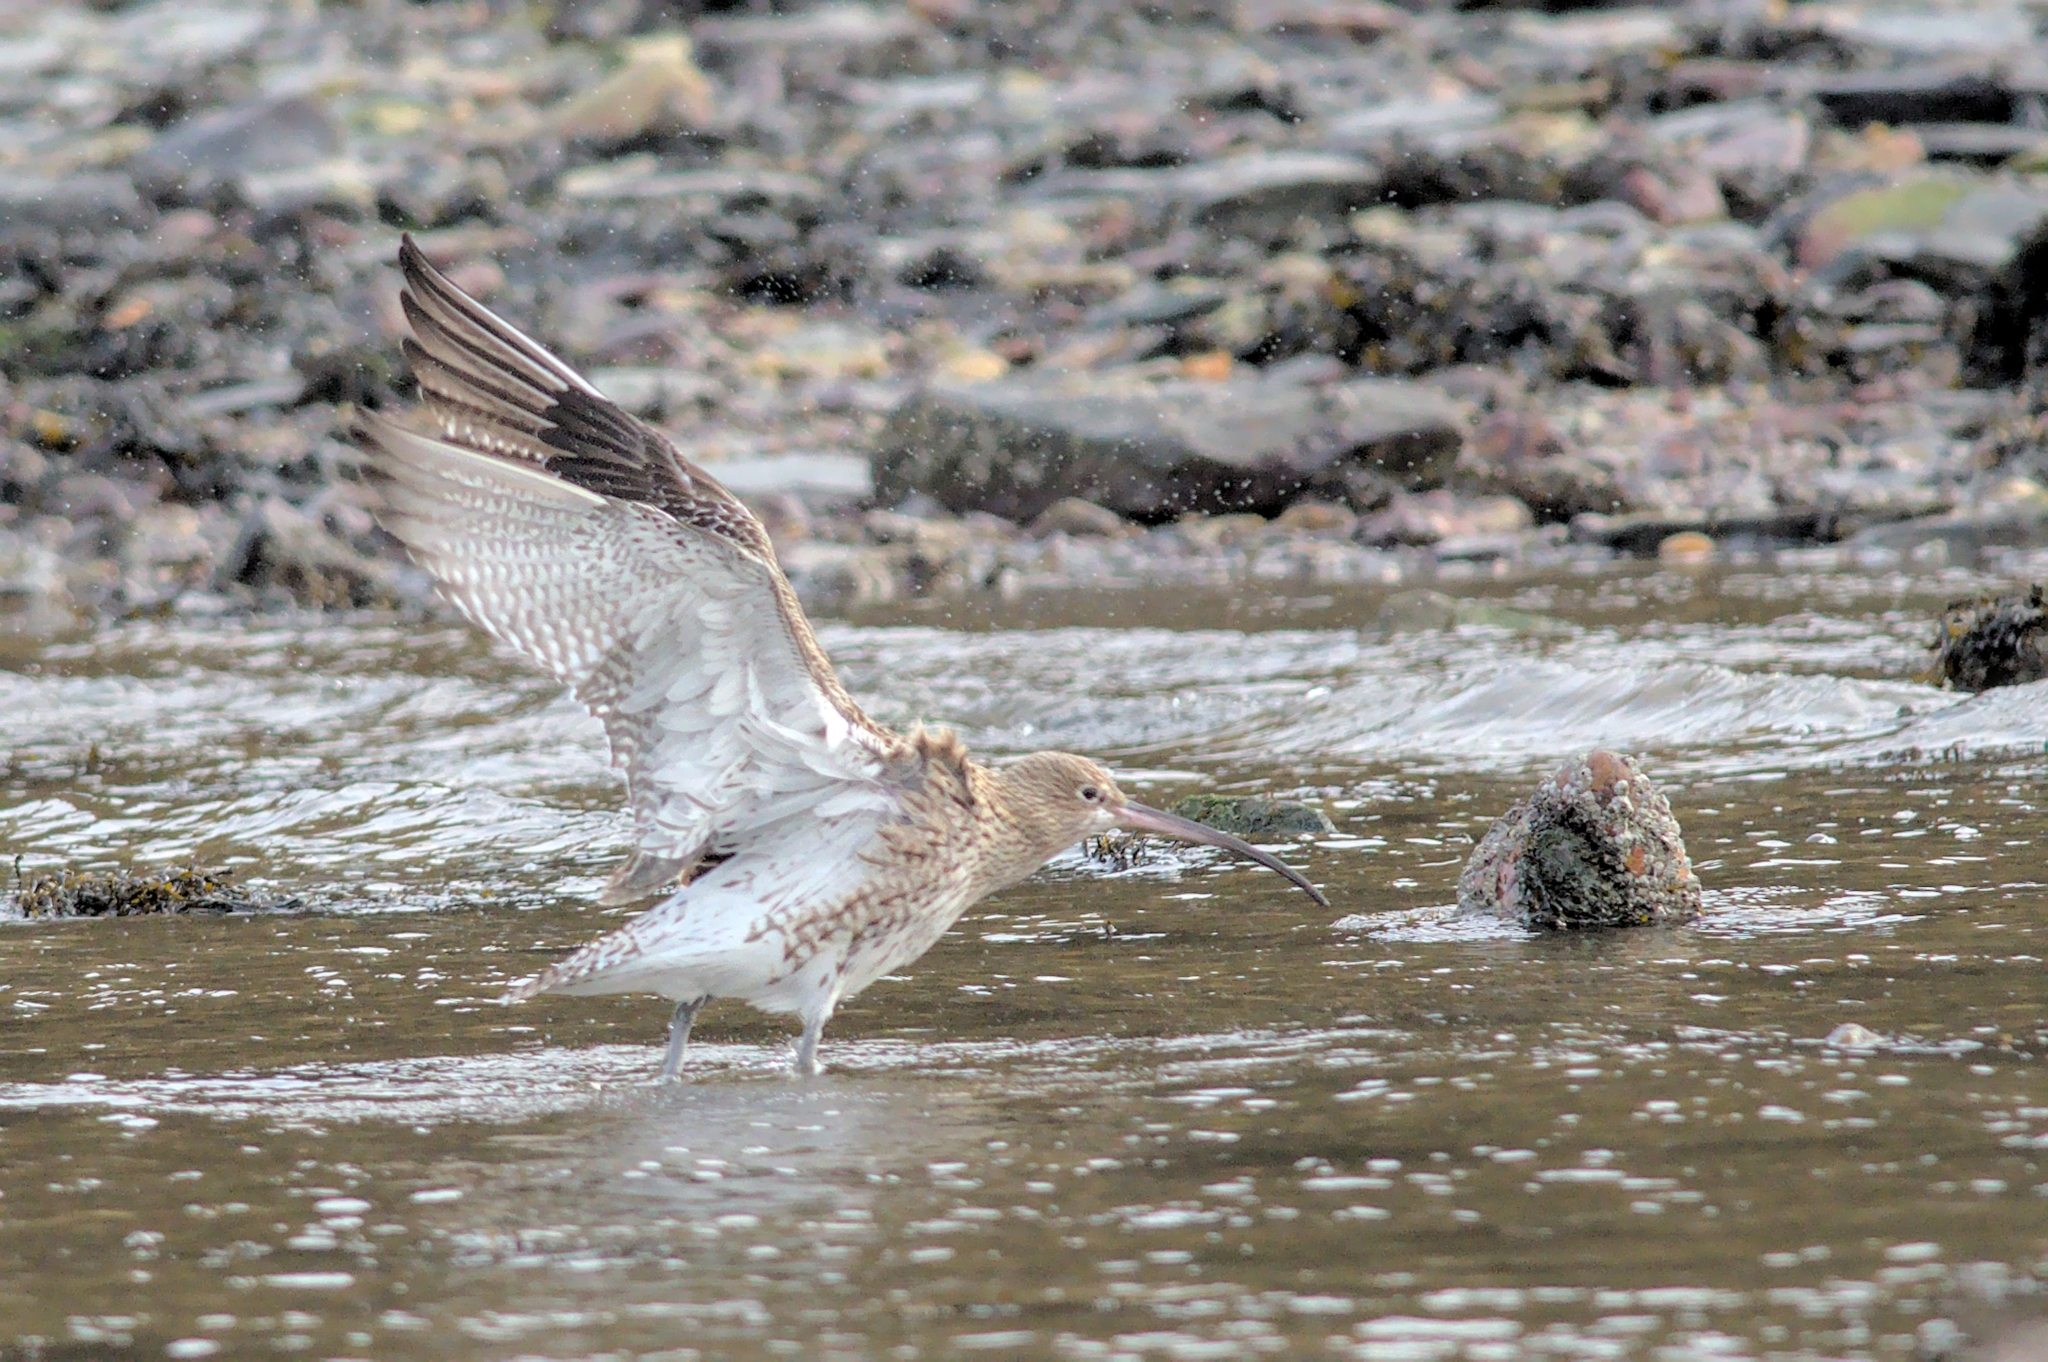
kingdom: Animalia
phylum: Chordata
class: Aves
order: Charadriiformes
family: Scolopacidae
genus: Numenius
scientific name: Numenius arquata
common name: Eurasian curlew
